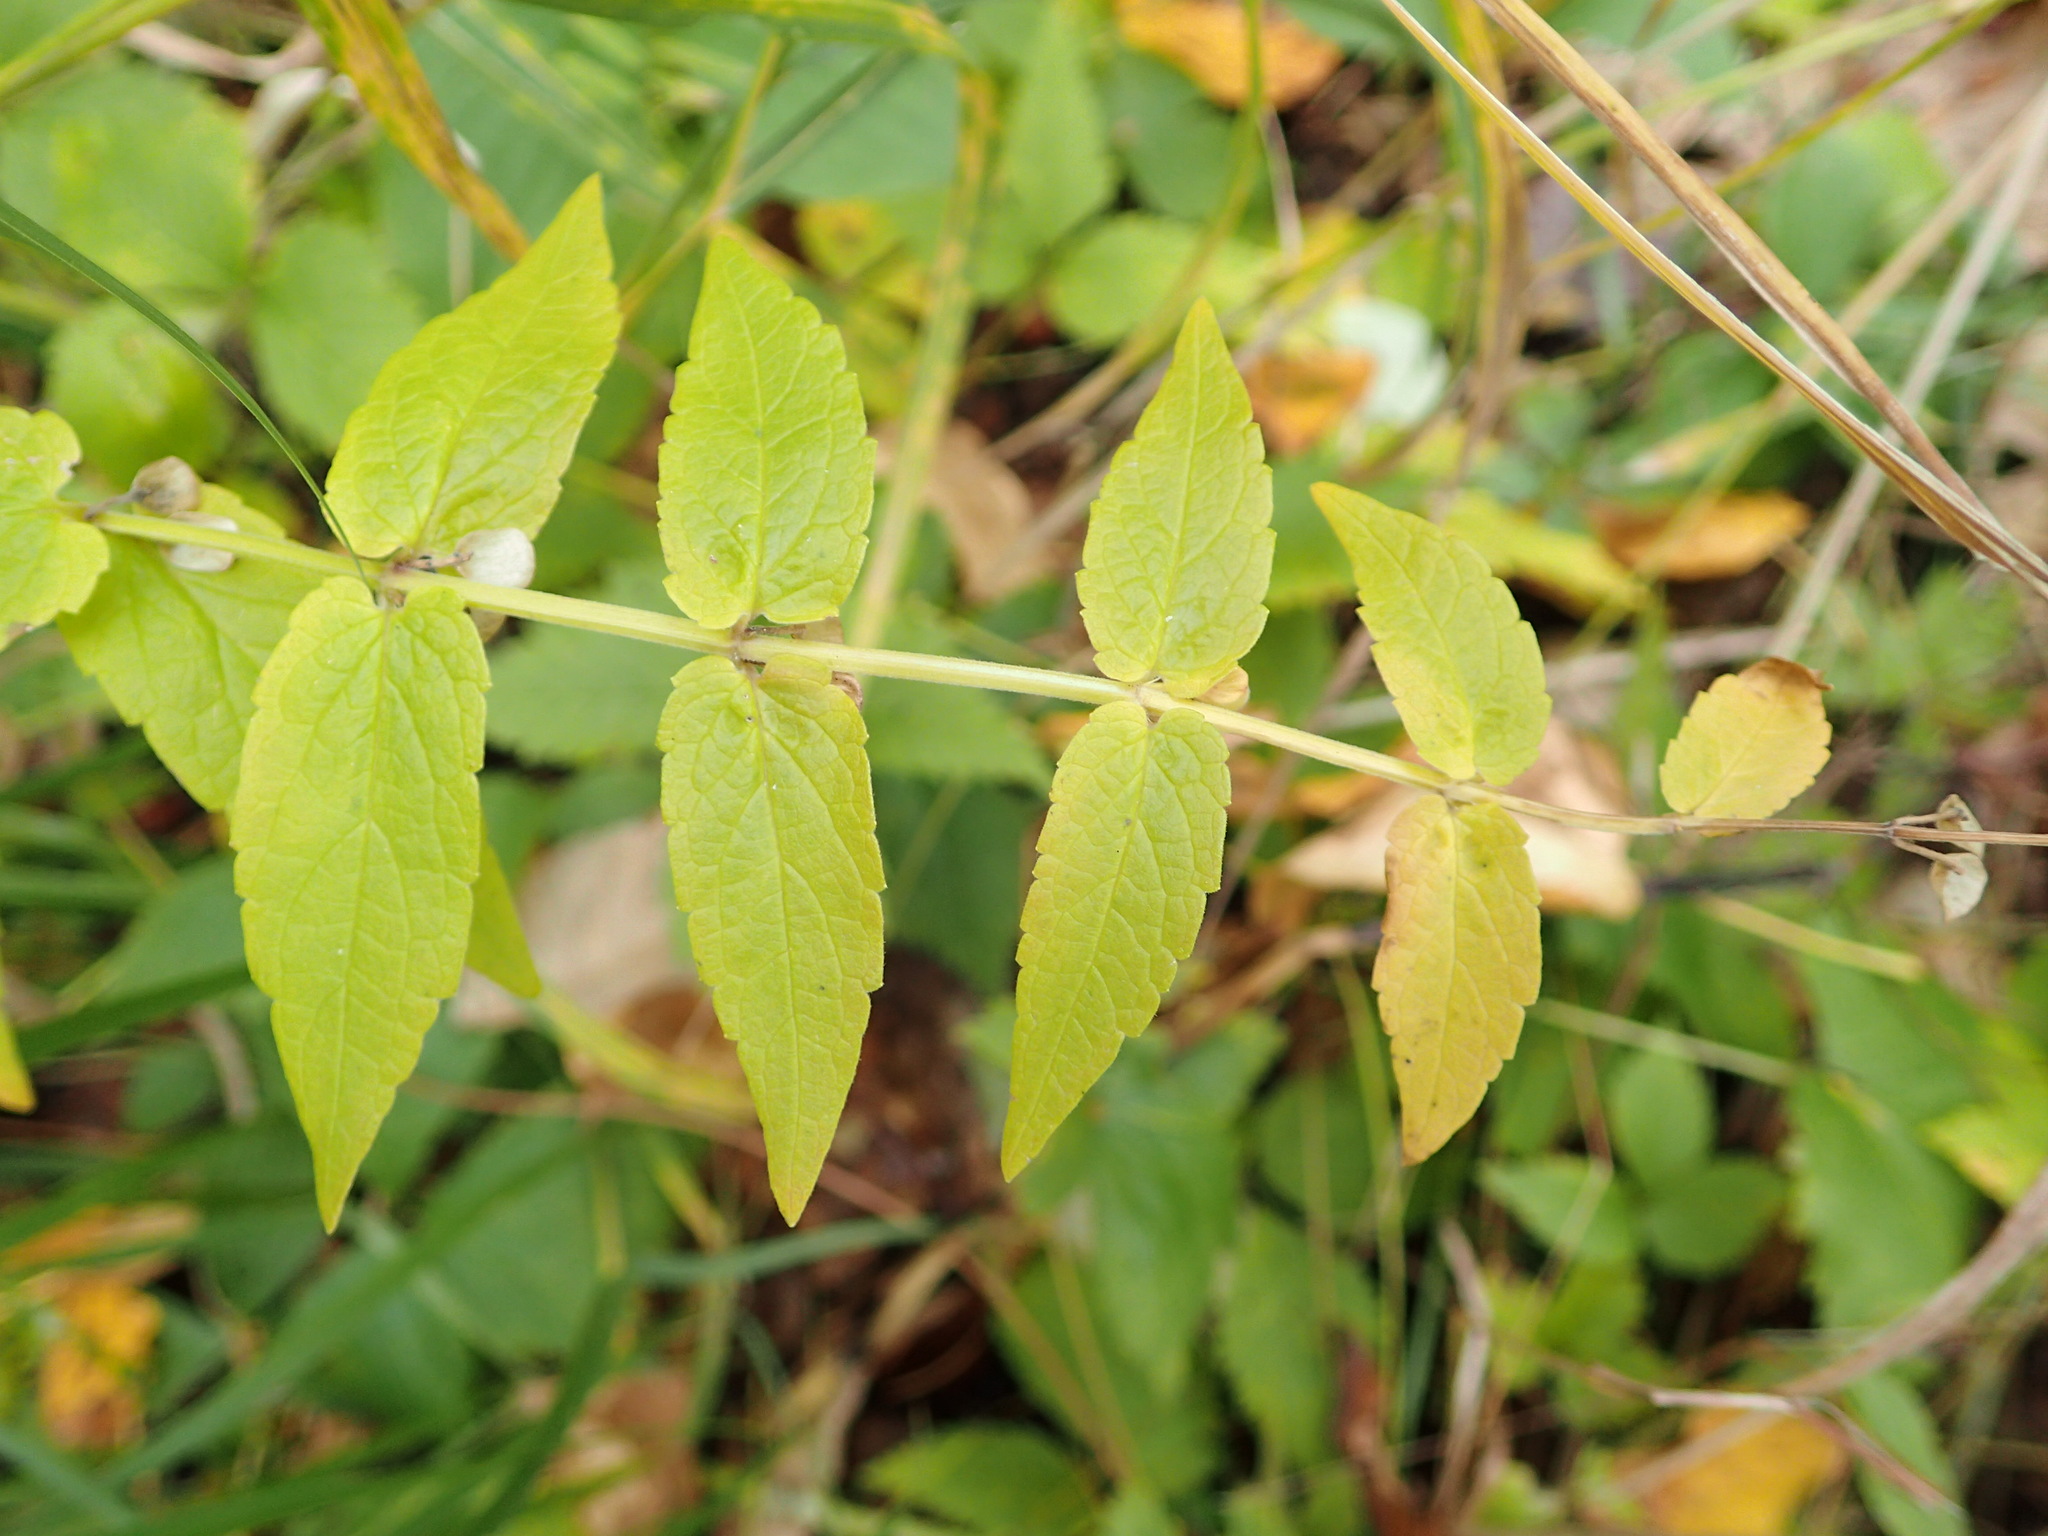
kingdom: Plantae
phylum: Tracheophyta
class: Magnoliopsida
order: Lamiales
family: Lamiaceae
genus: Scutellaria
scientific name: Scutellaria galericulata
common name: Skullcap
